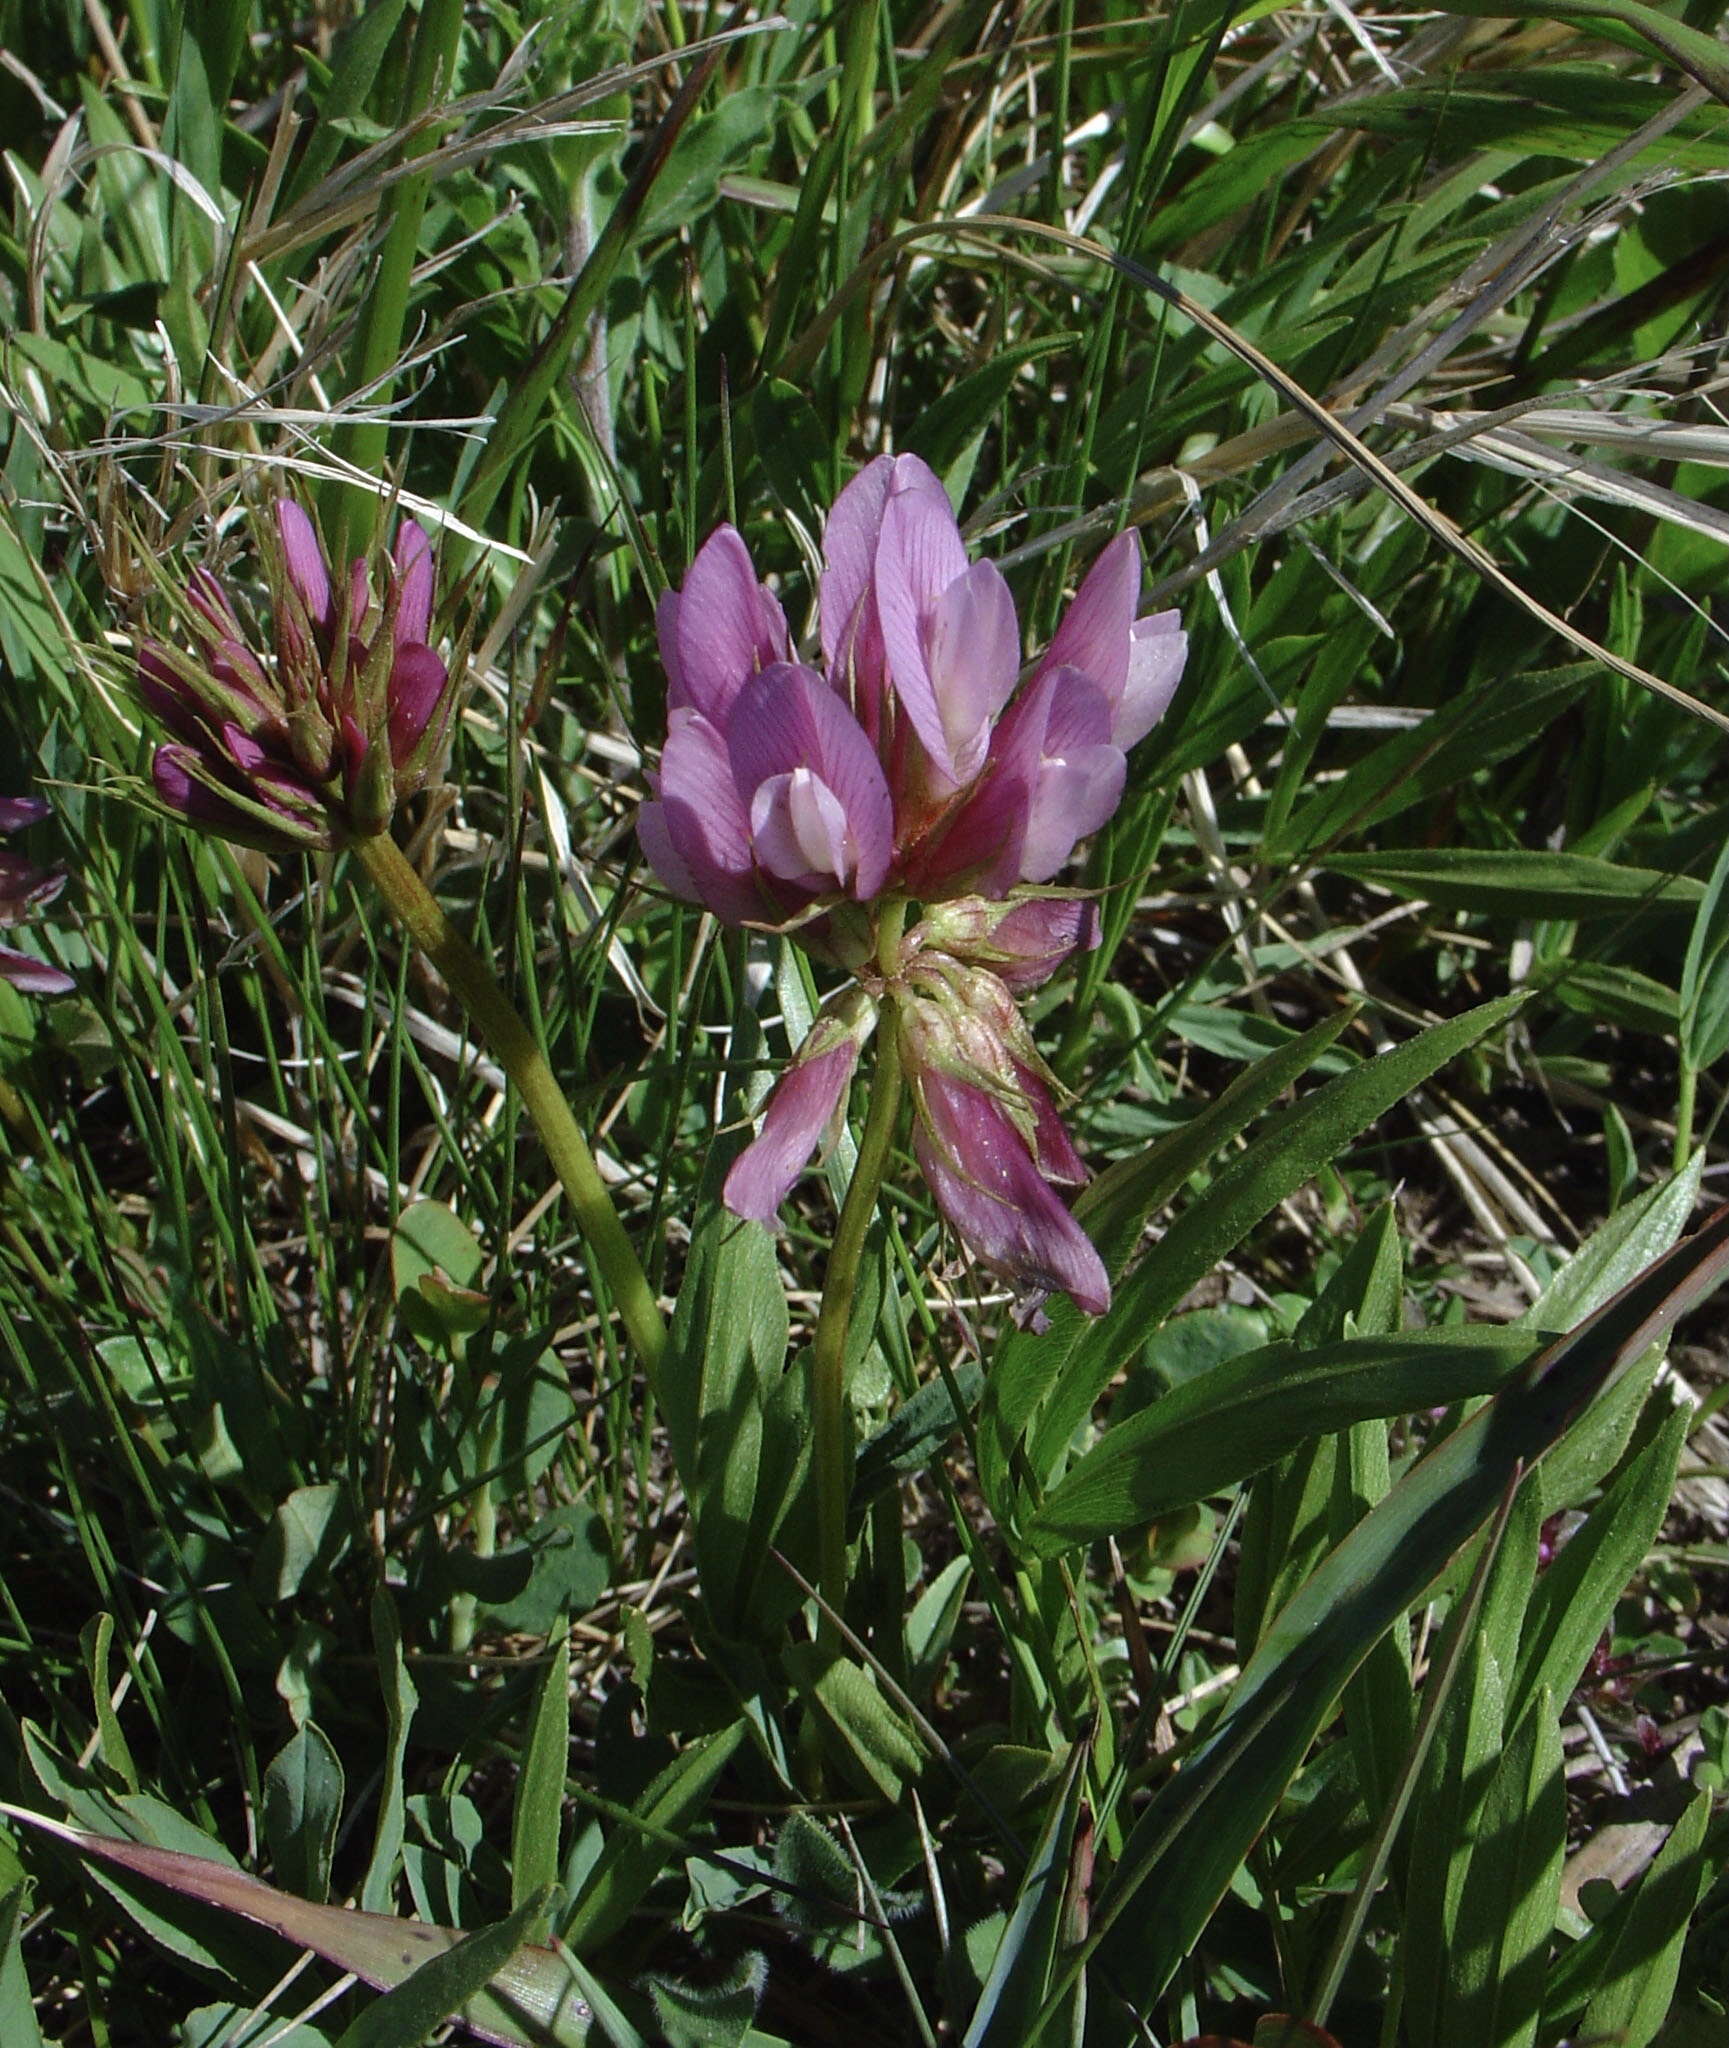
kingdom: Plantae
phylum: Tracheophyta
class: Magnoliopsida
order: Fabales
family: Fabaceae
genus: Trifolium
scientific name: Trifolium alpinum
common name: Alpine clover
